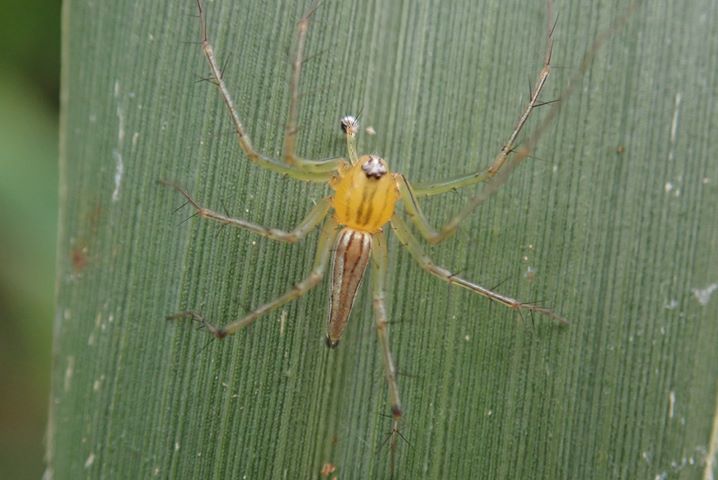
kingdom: Animalia
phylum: Arthropoda
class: Arachnida
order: Araneae
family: Oxyopidae
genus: Oxyopes
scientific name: Oxyopes macilentus
